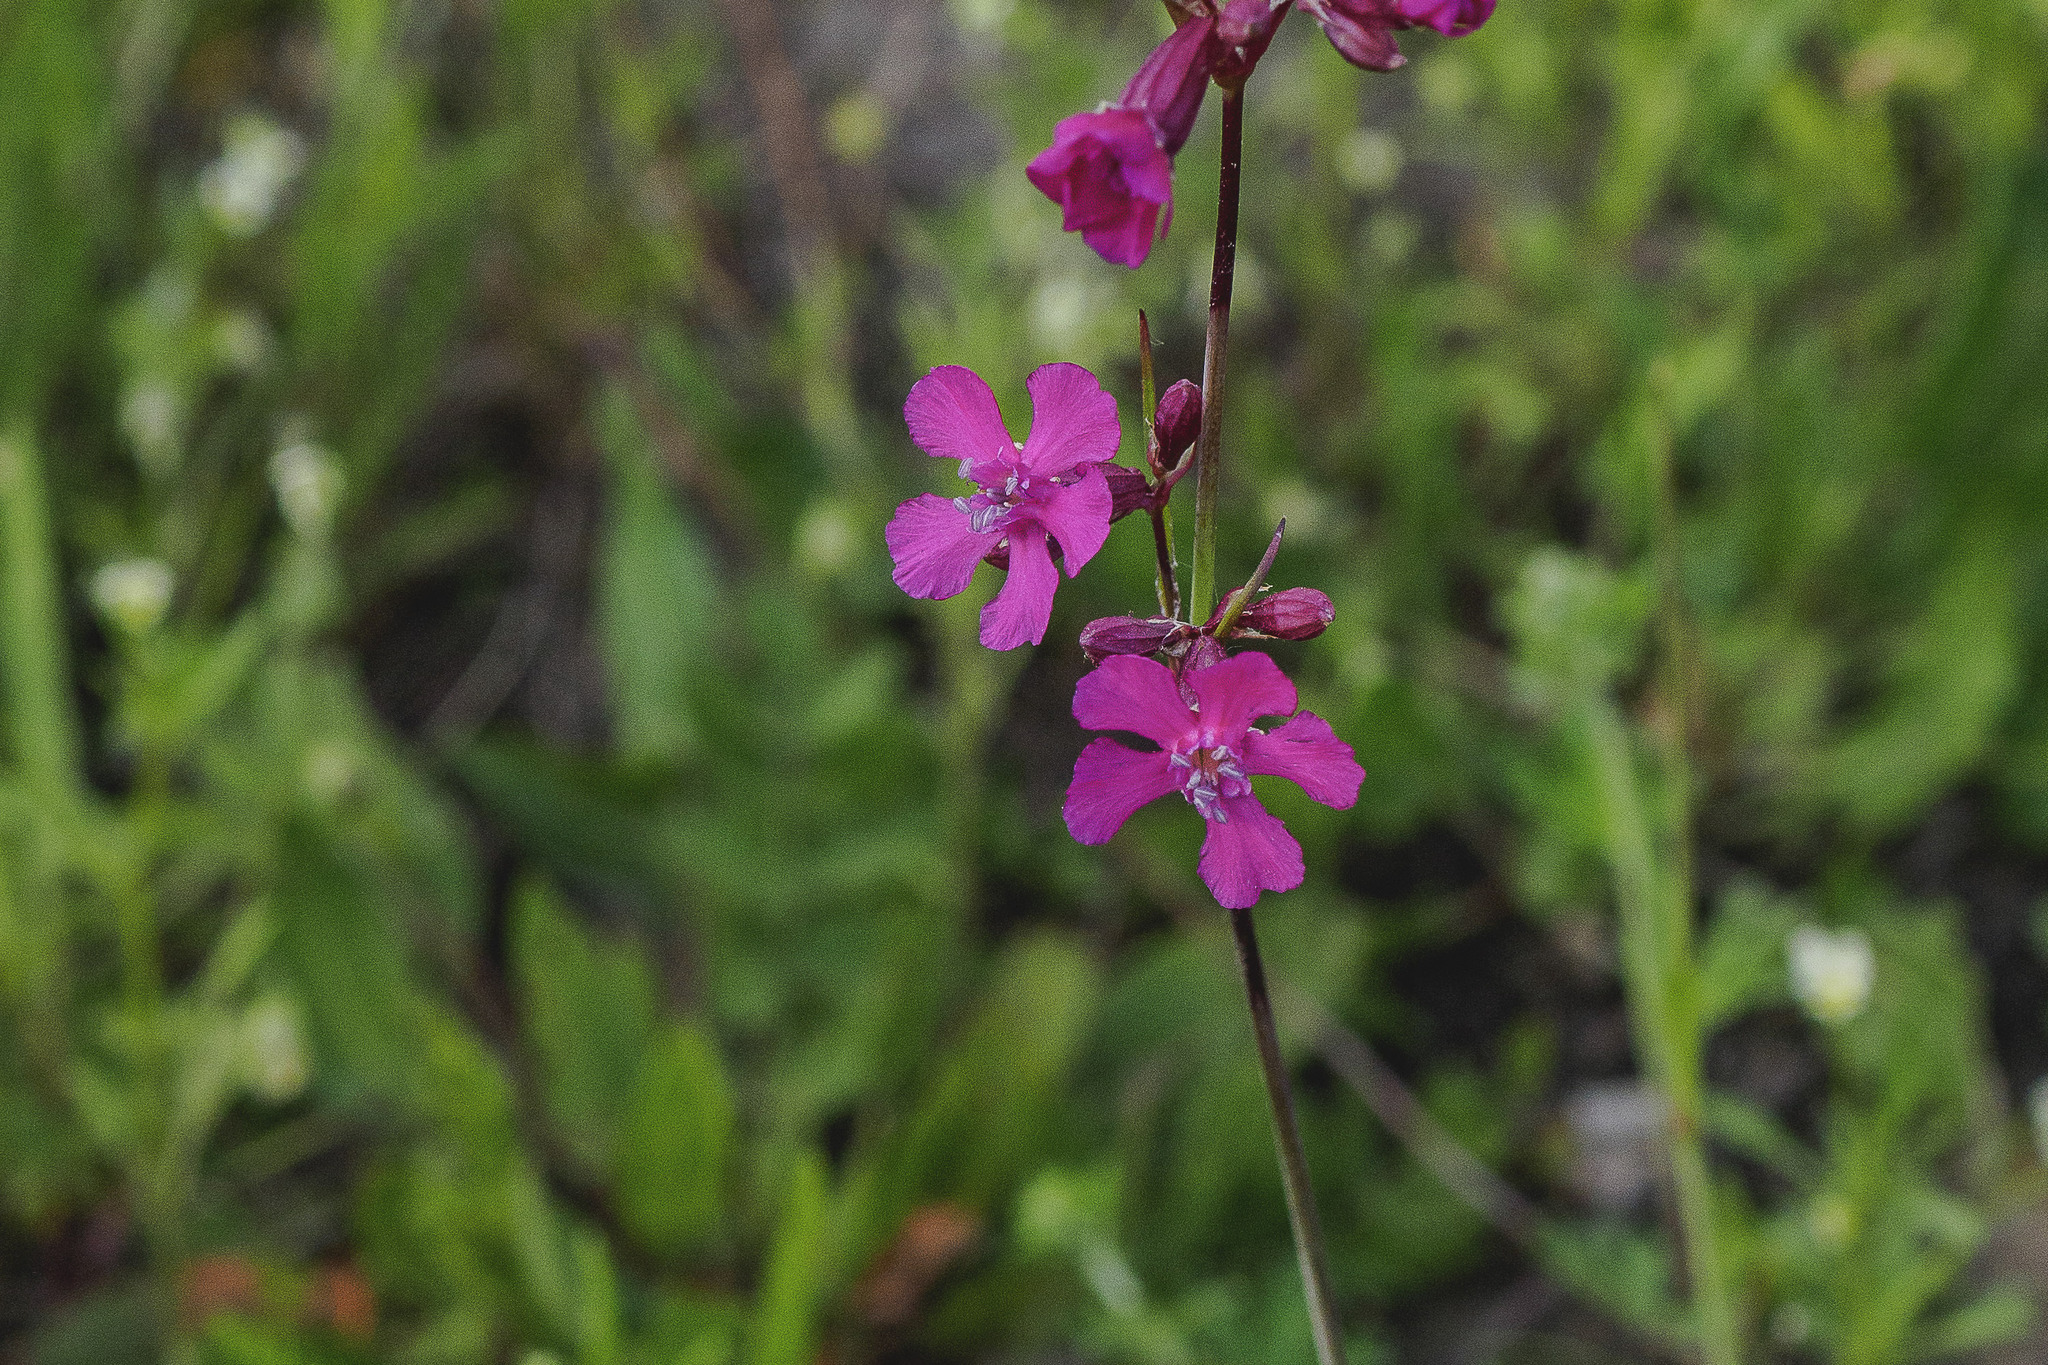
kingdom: Plantae
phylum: Tracheophyta
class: Magnoliopsida
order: Caryophyllales
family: Caryophyllaceae
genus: Viscaria
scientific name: Viscaria vulgaris
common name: Clammy campion
